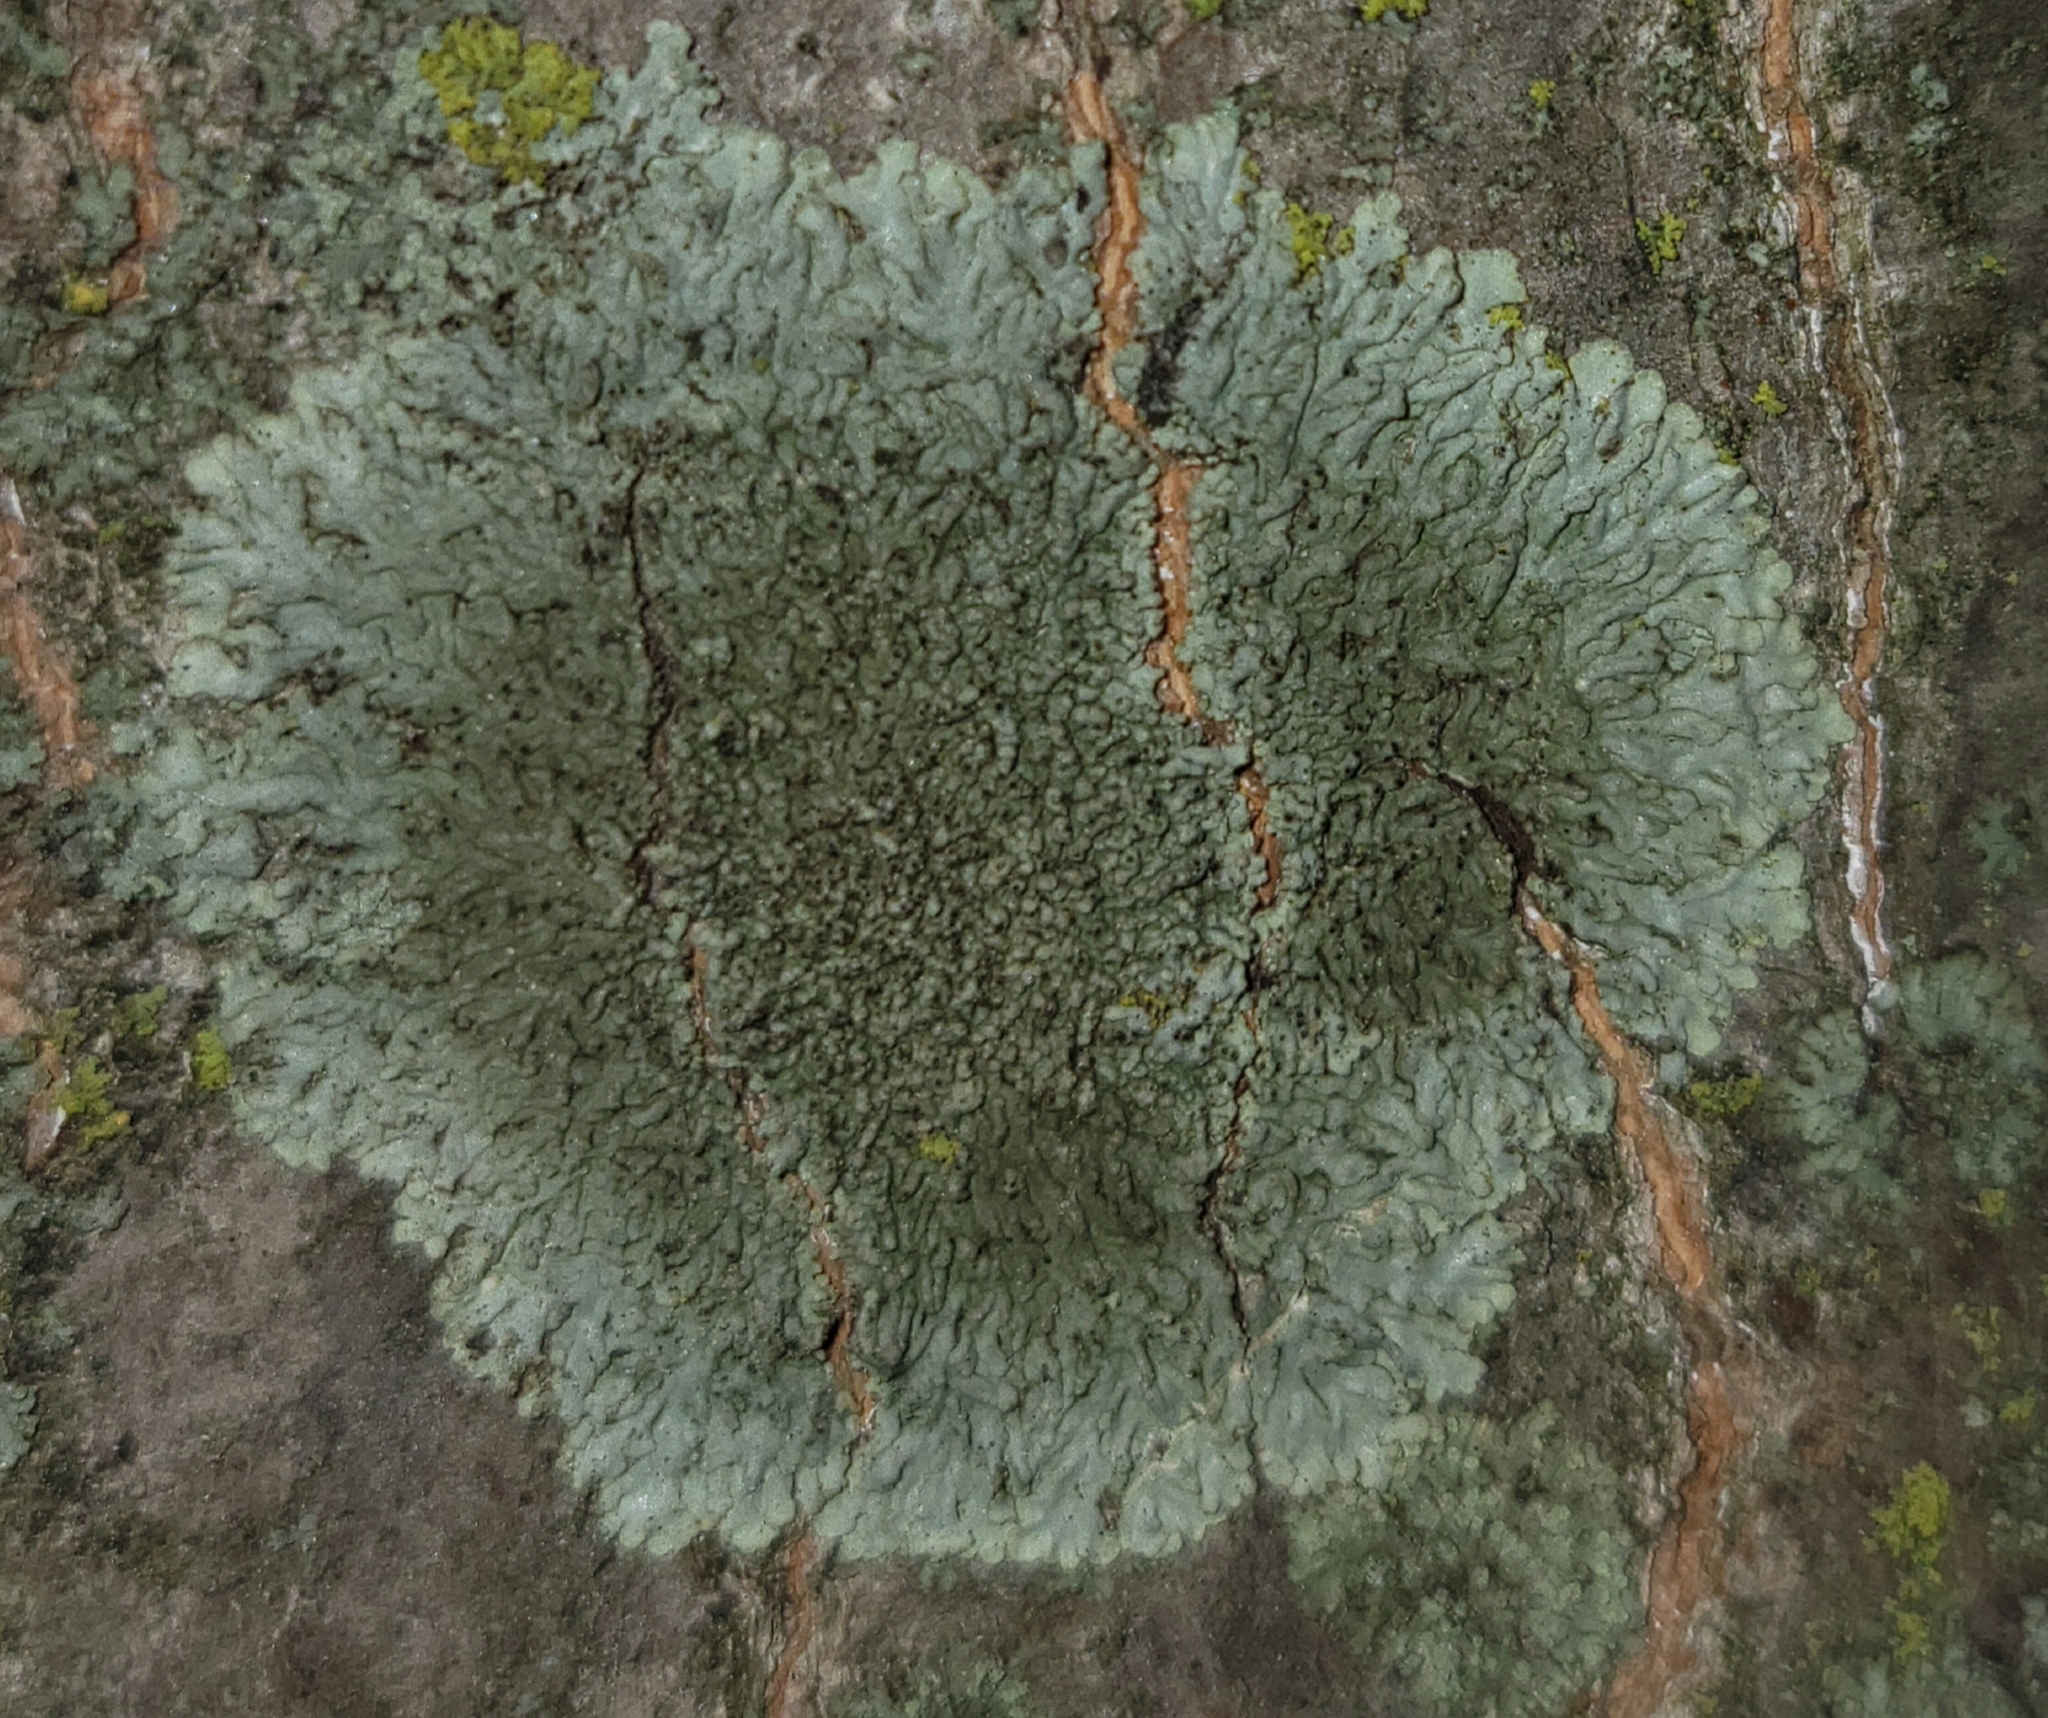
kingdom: Fungi
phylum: Ascomycota
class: Lecanoromycetes
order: Caliciales
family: Physciaceae
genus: Hyperphyscia
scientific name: Hyperphyscia syncolla
